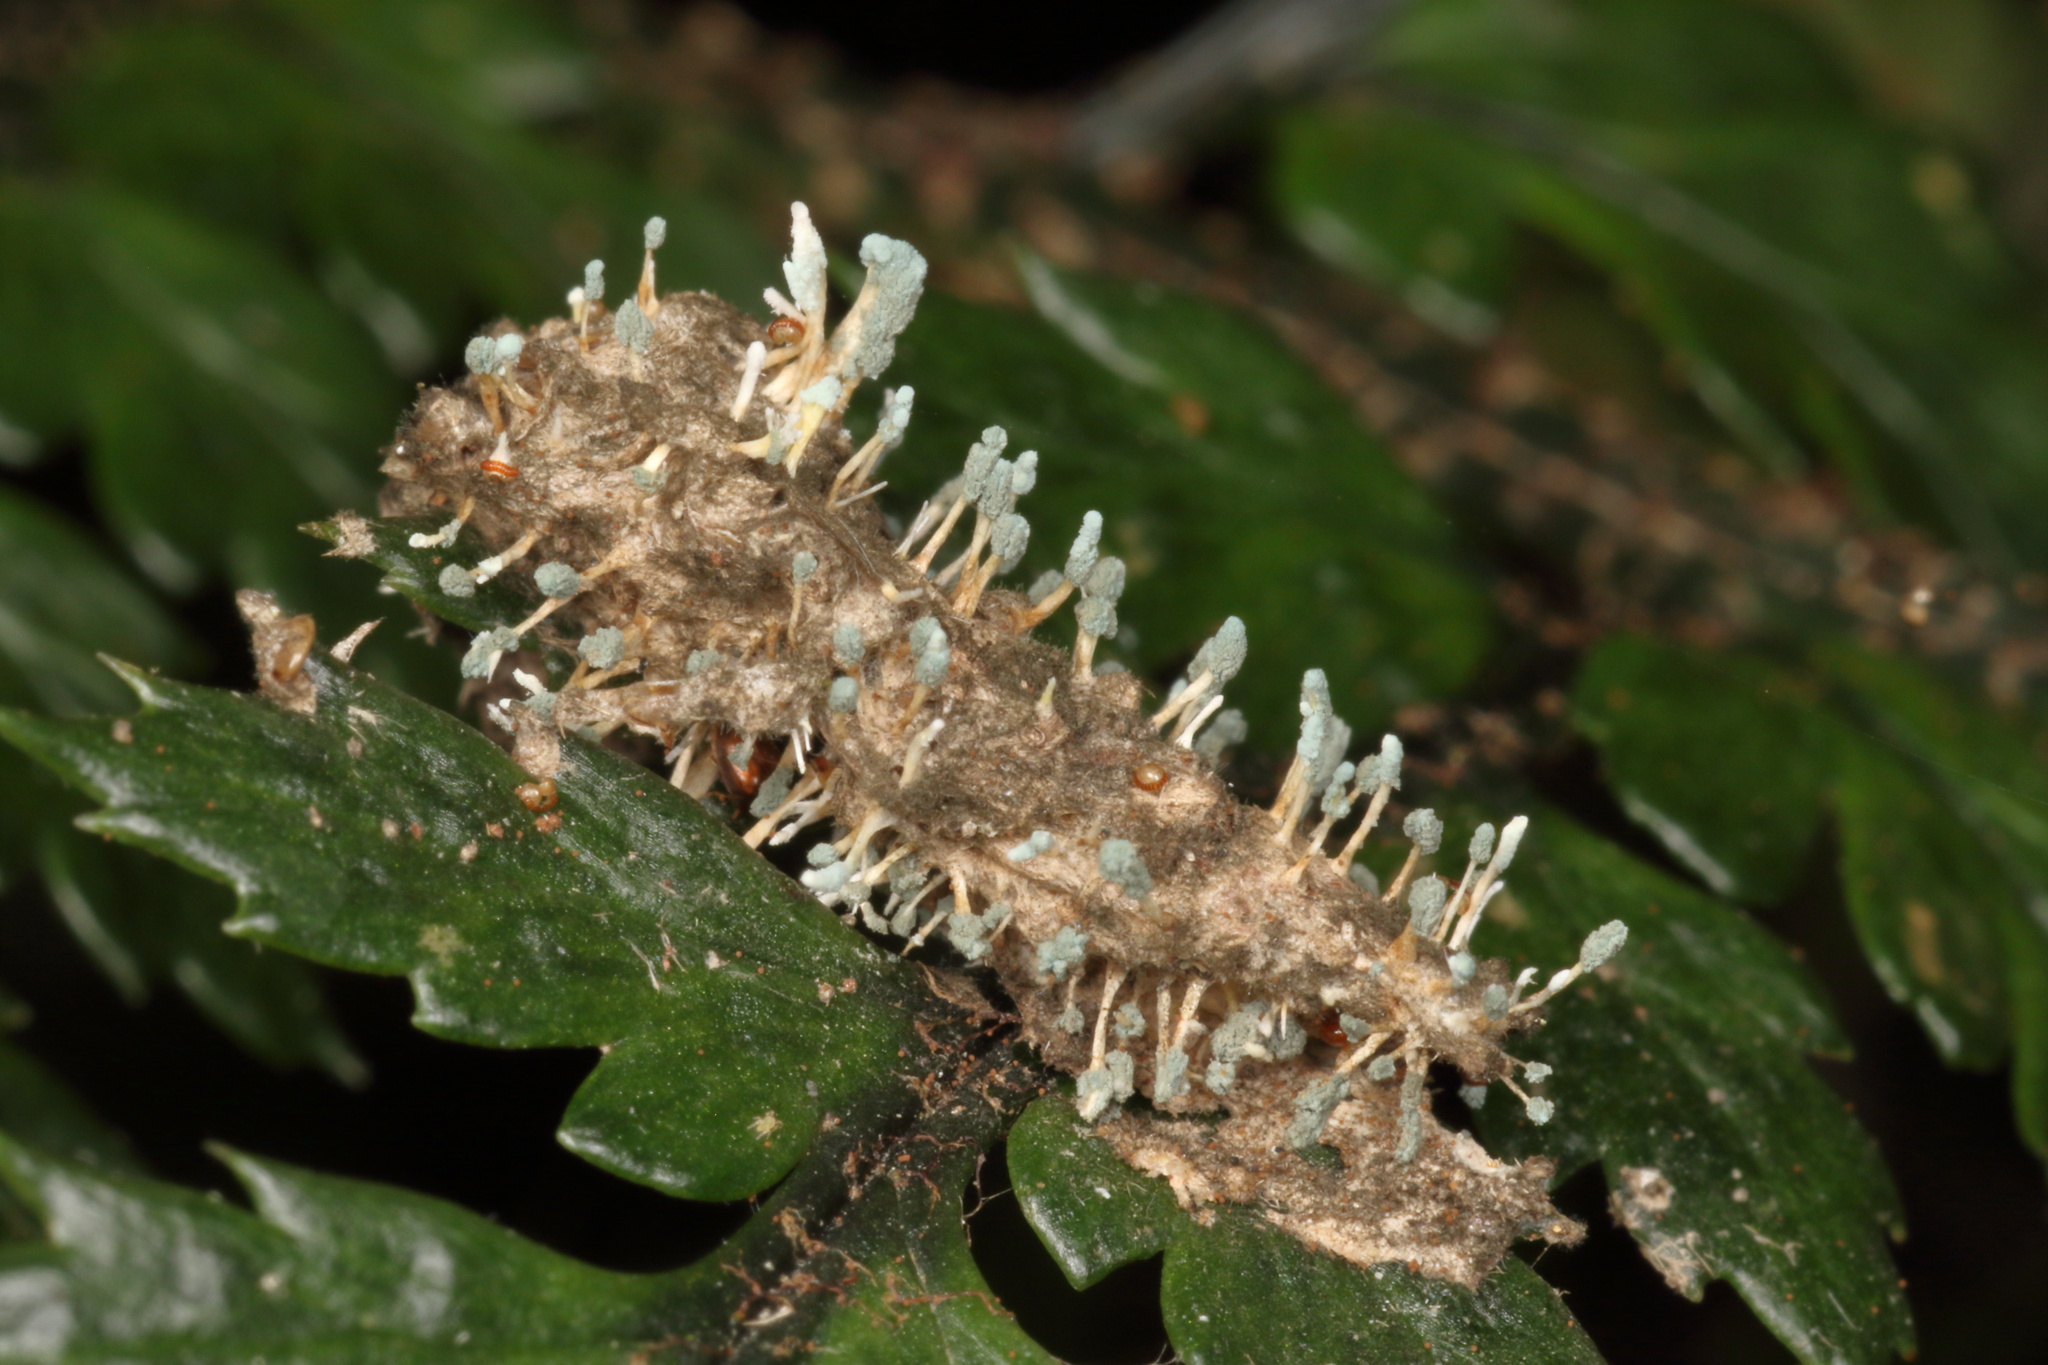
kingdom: Fungi
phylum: Ascomycota
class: Eurotiomycetes
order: Eurotiales
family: Aspergillaceae
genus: Penicillium
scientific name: Penicillium vulpinum
